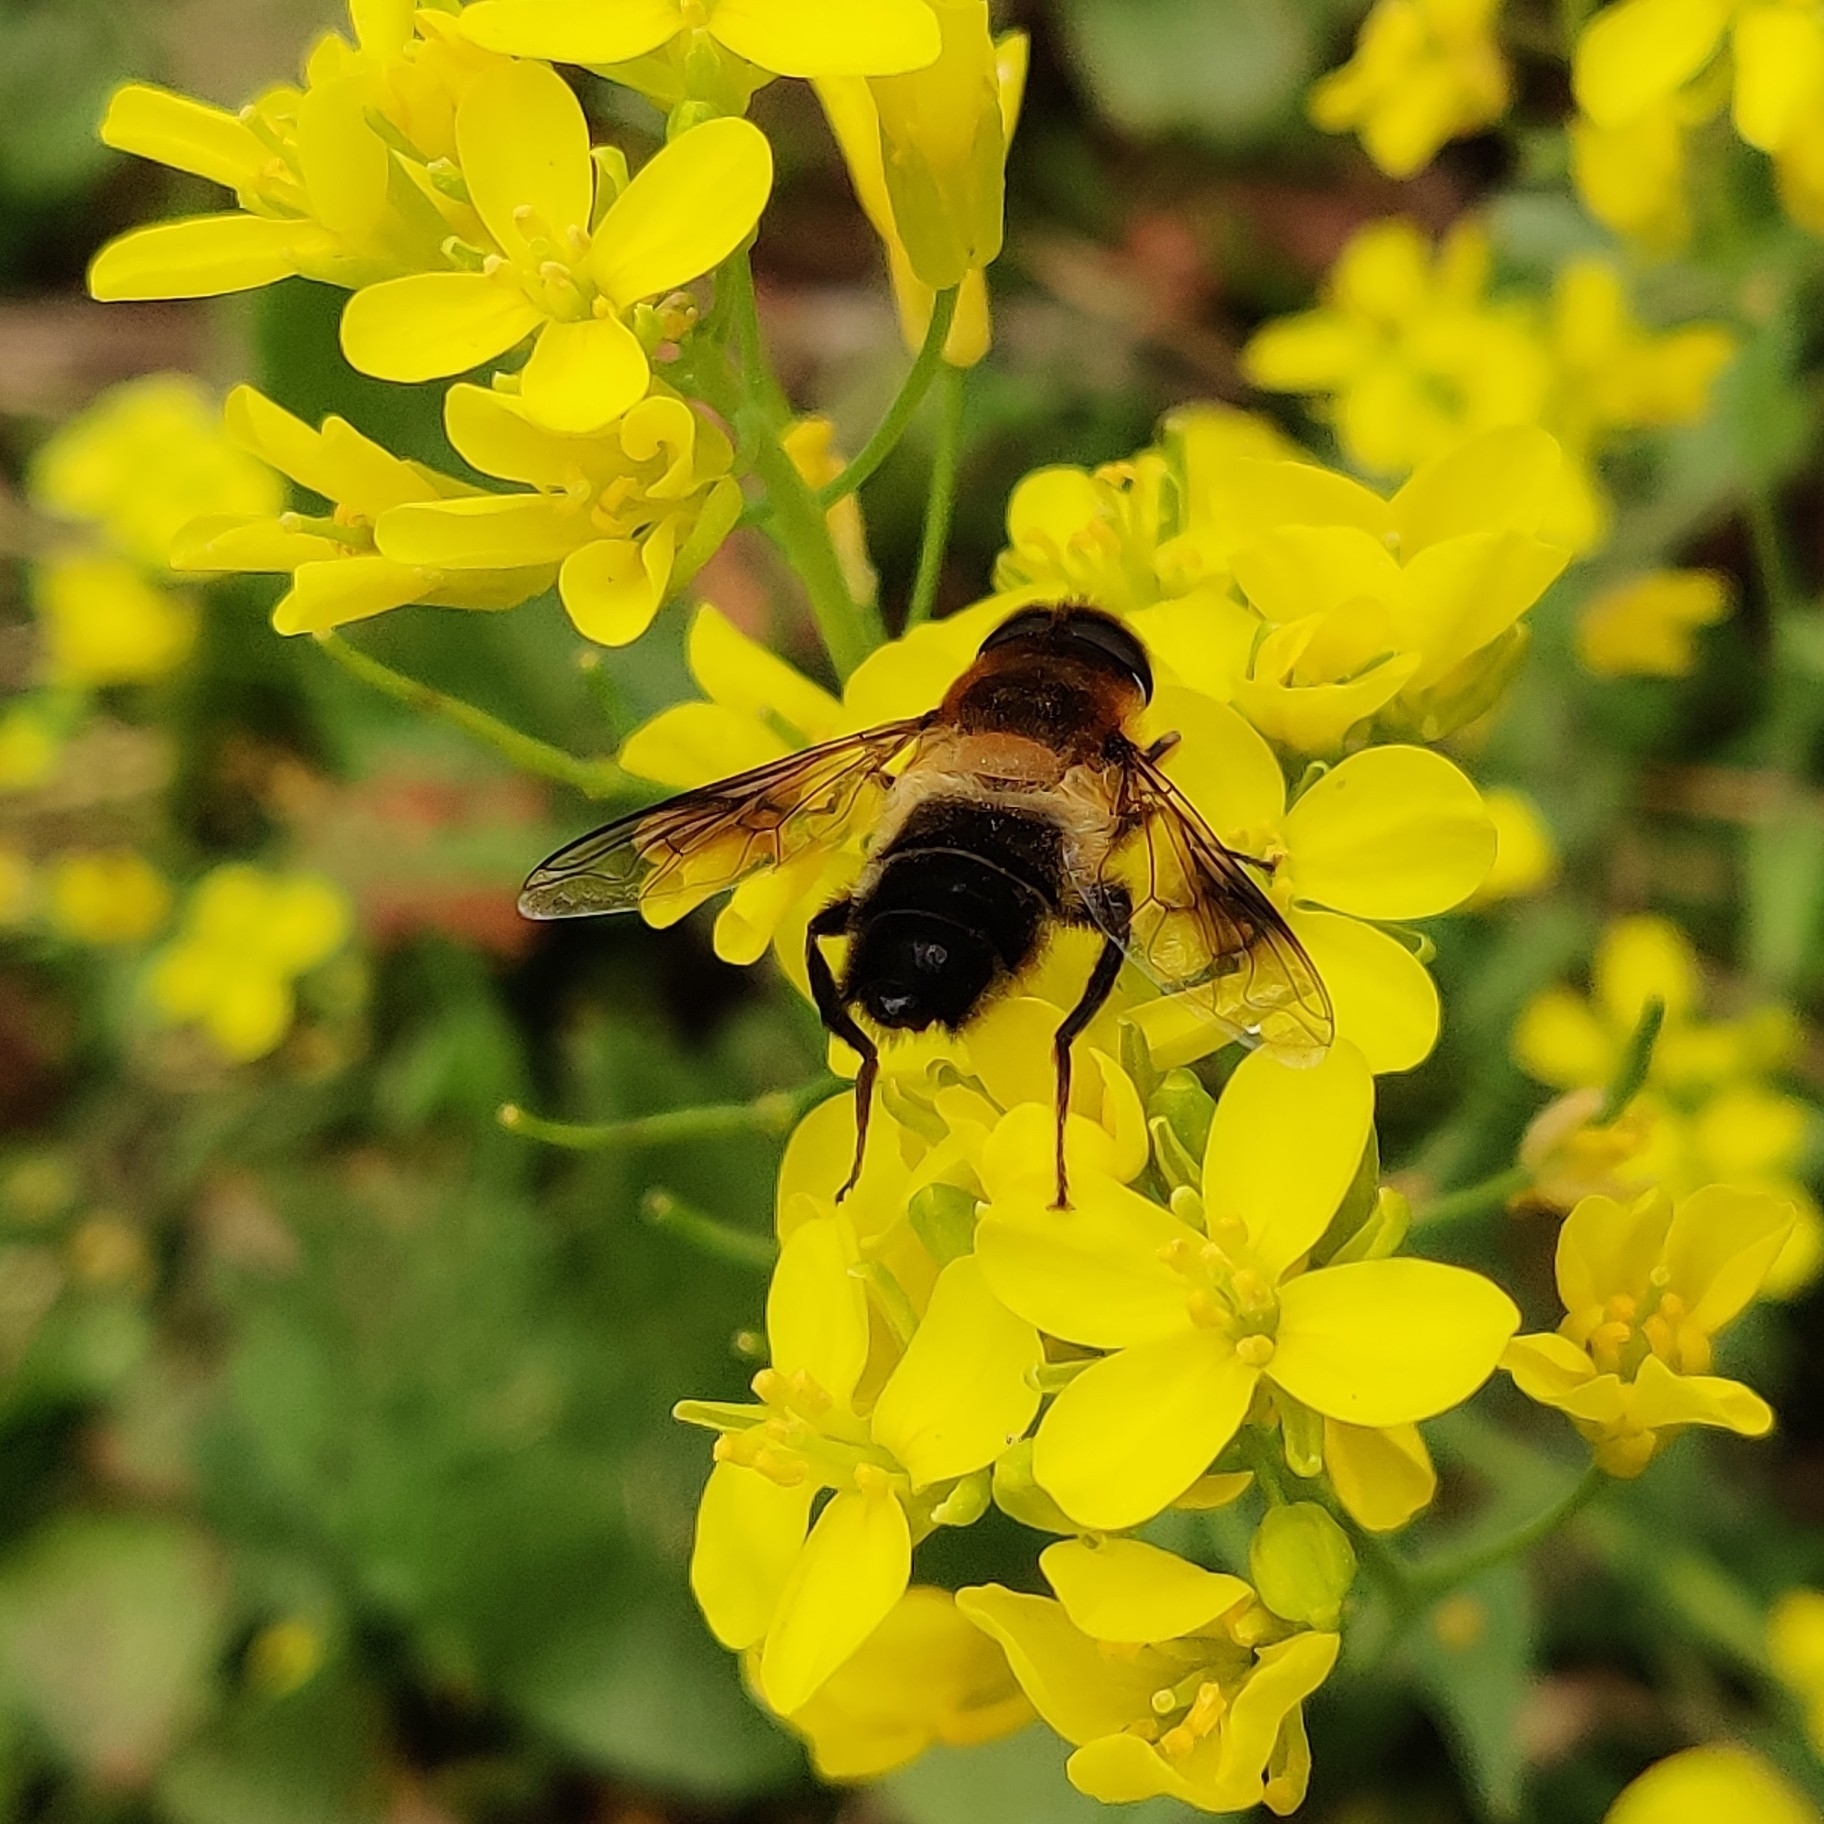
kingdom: Animalia
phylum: Arthropoda
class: Insecta
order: Diptera
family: Syrphidae
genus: Eristalis
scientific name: Eristalis himalayensis
